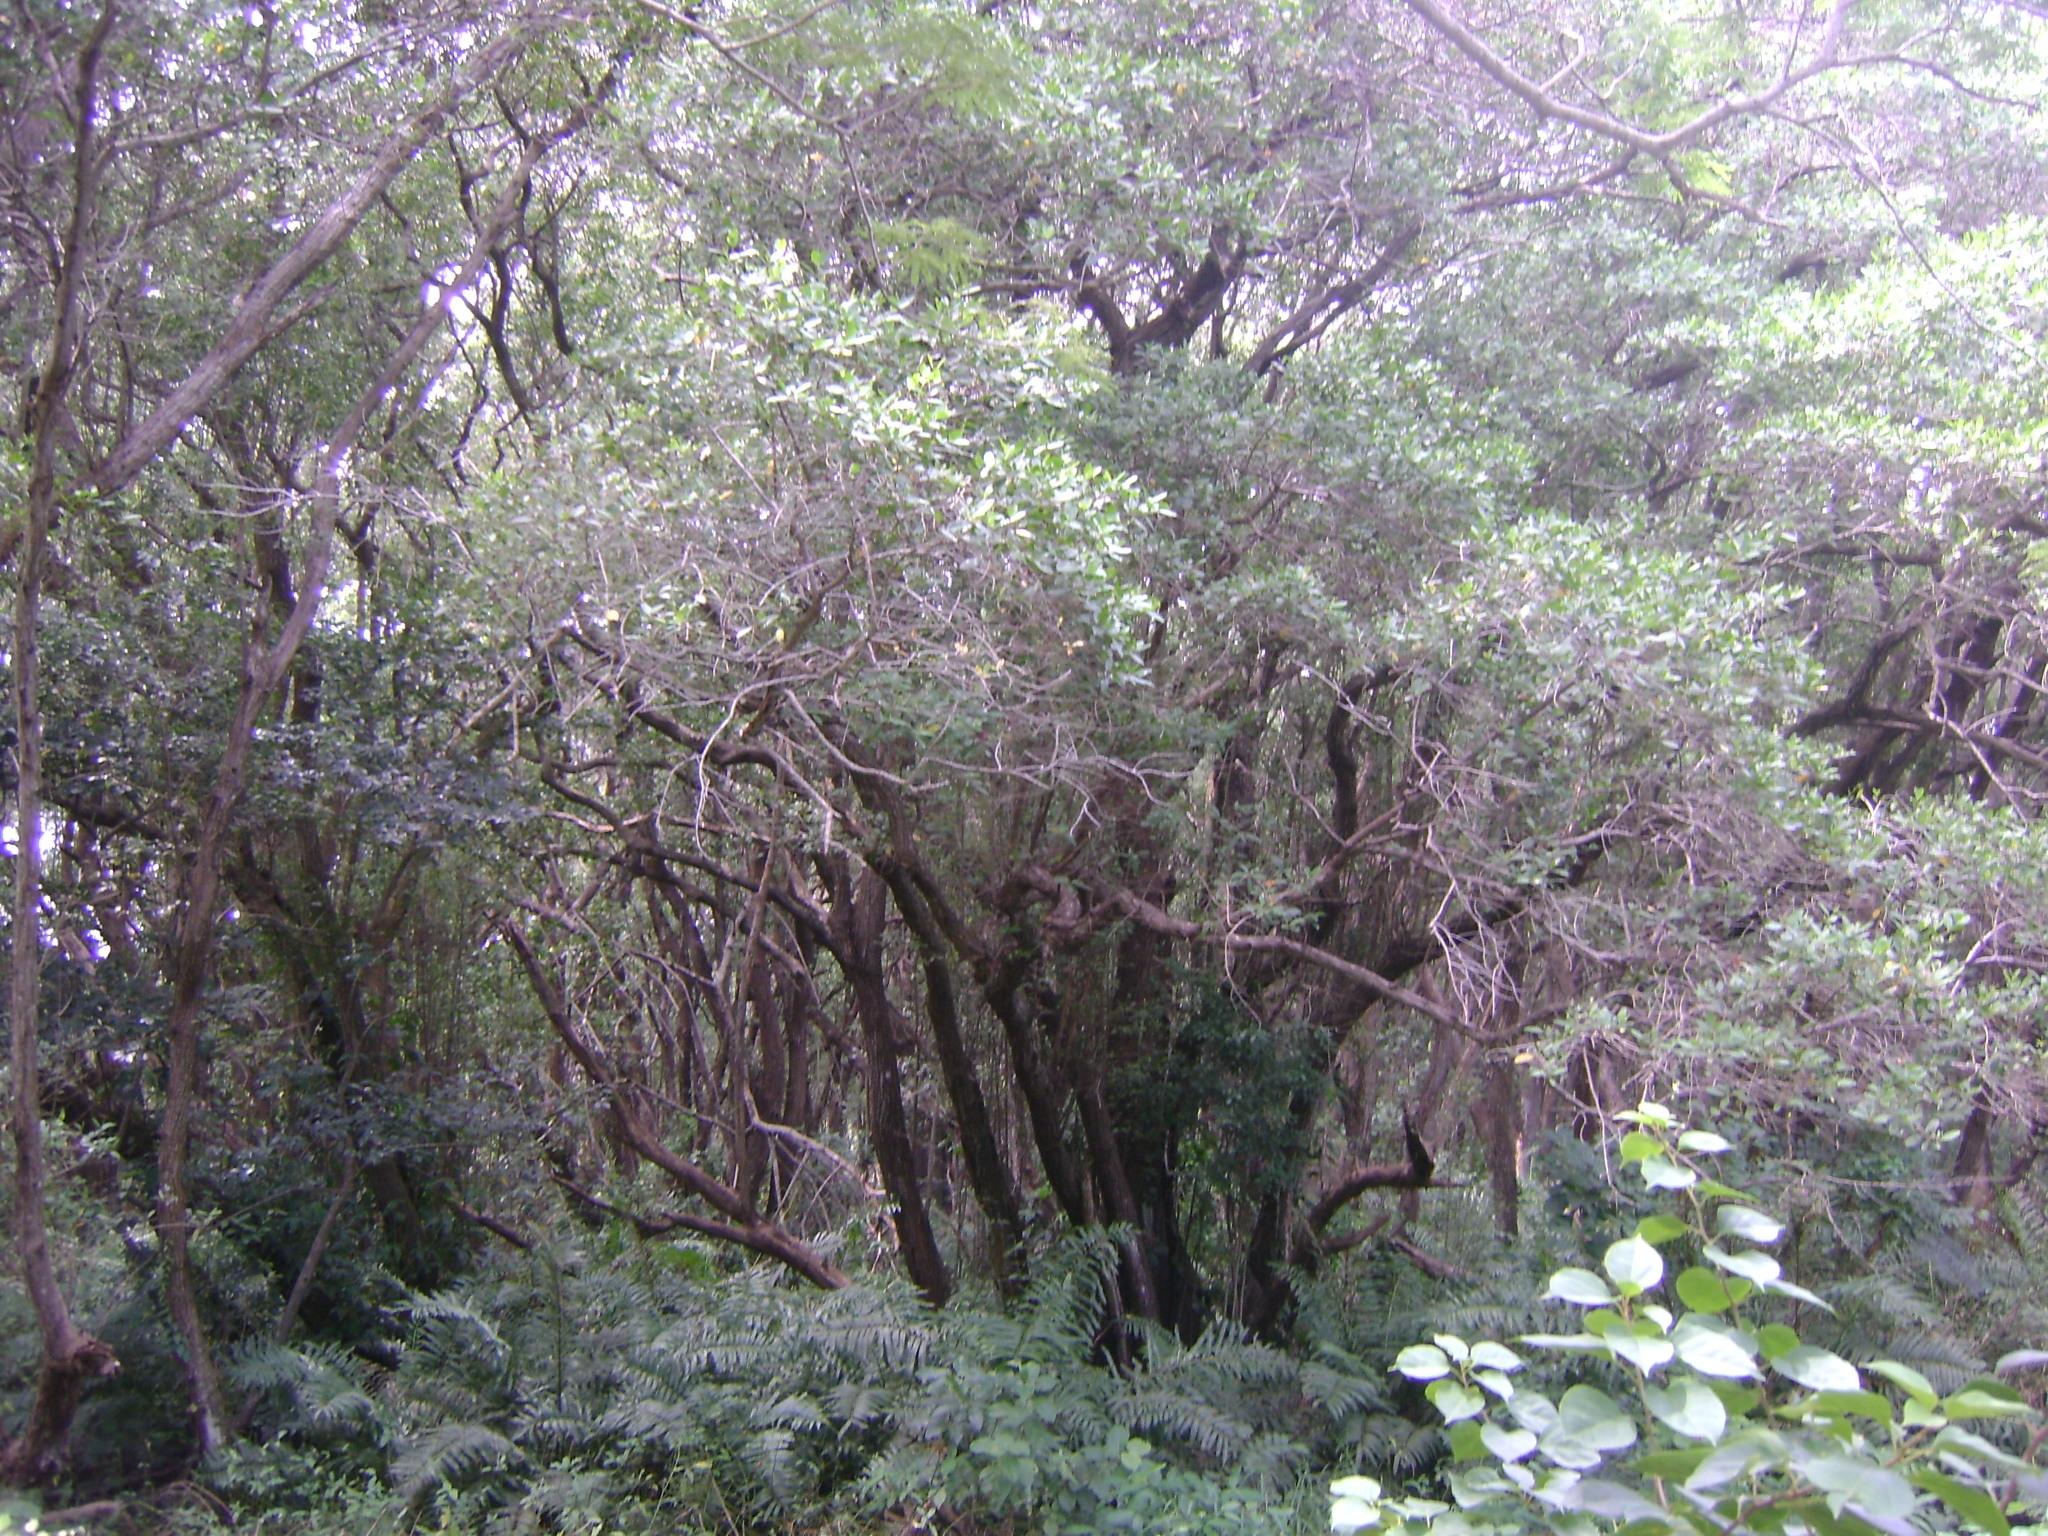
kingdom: Plantae
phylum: Tracheophyta
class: Magnoliopsida
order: Lamiales
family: Acanthaceae
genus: Avicennia
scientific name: Avicennia germinans
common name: Black mangrove
